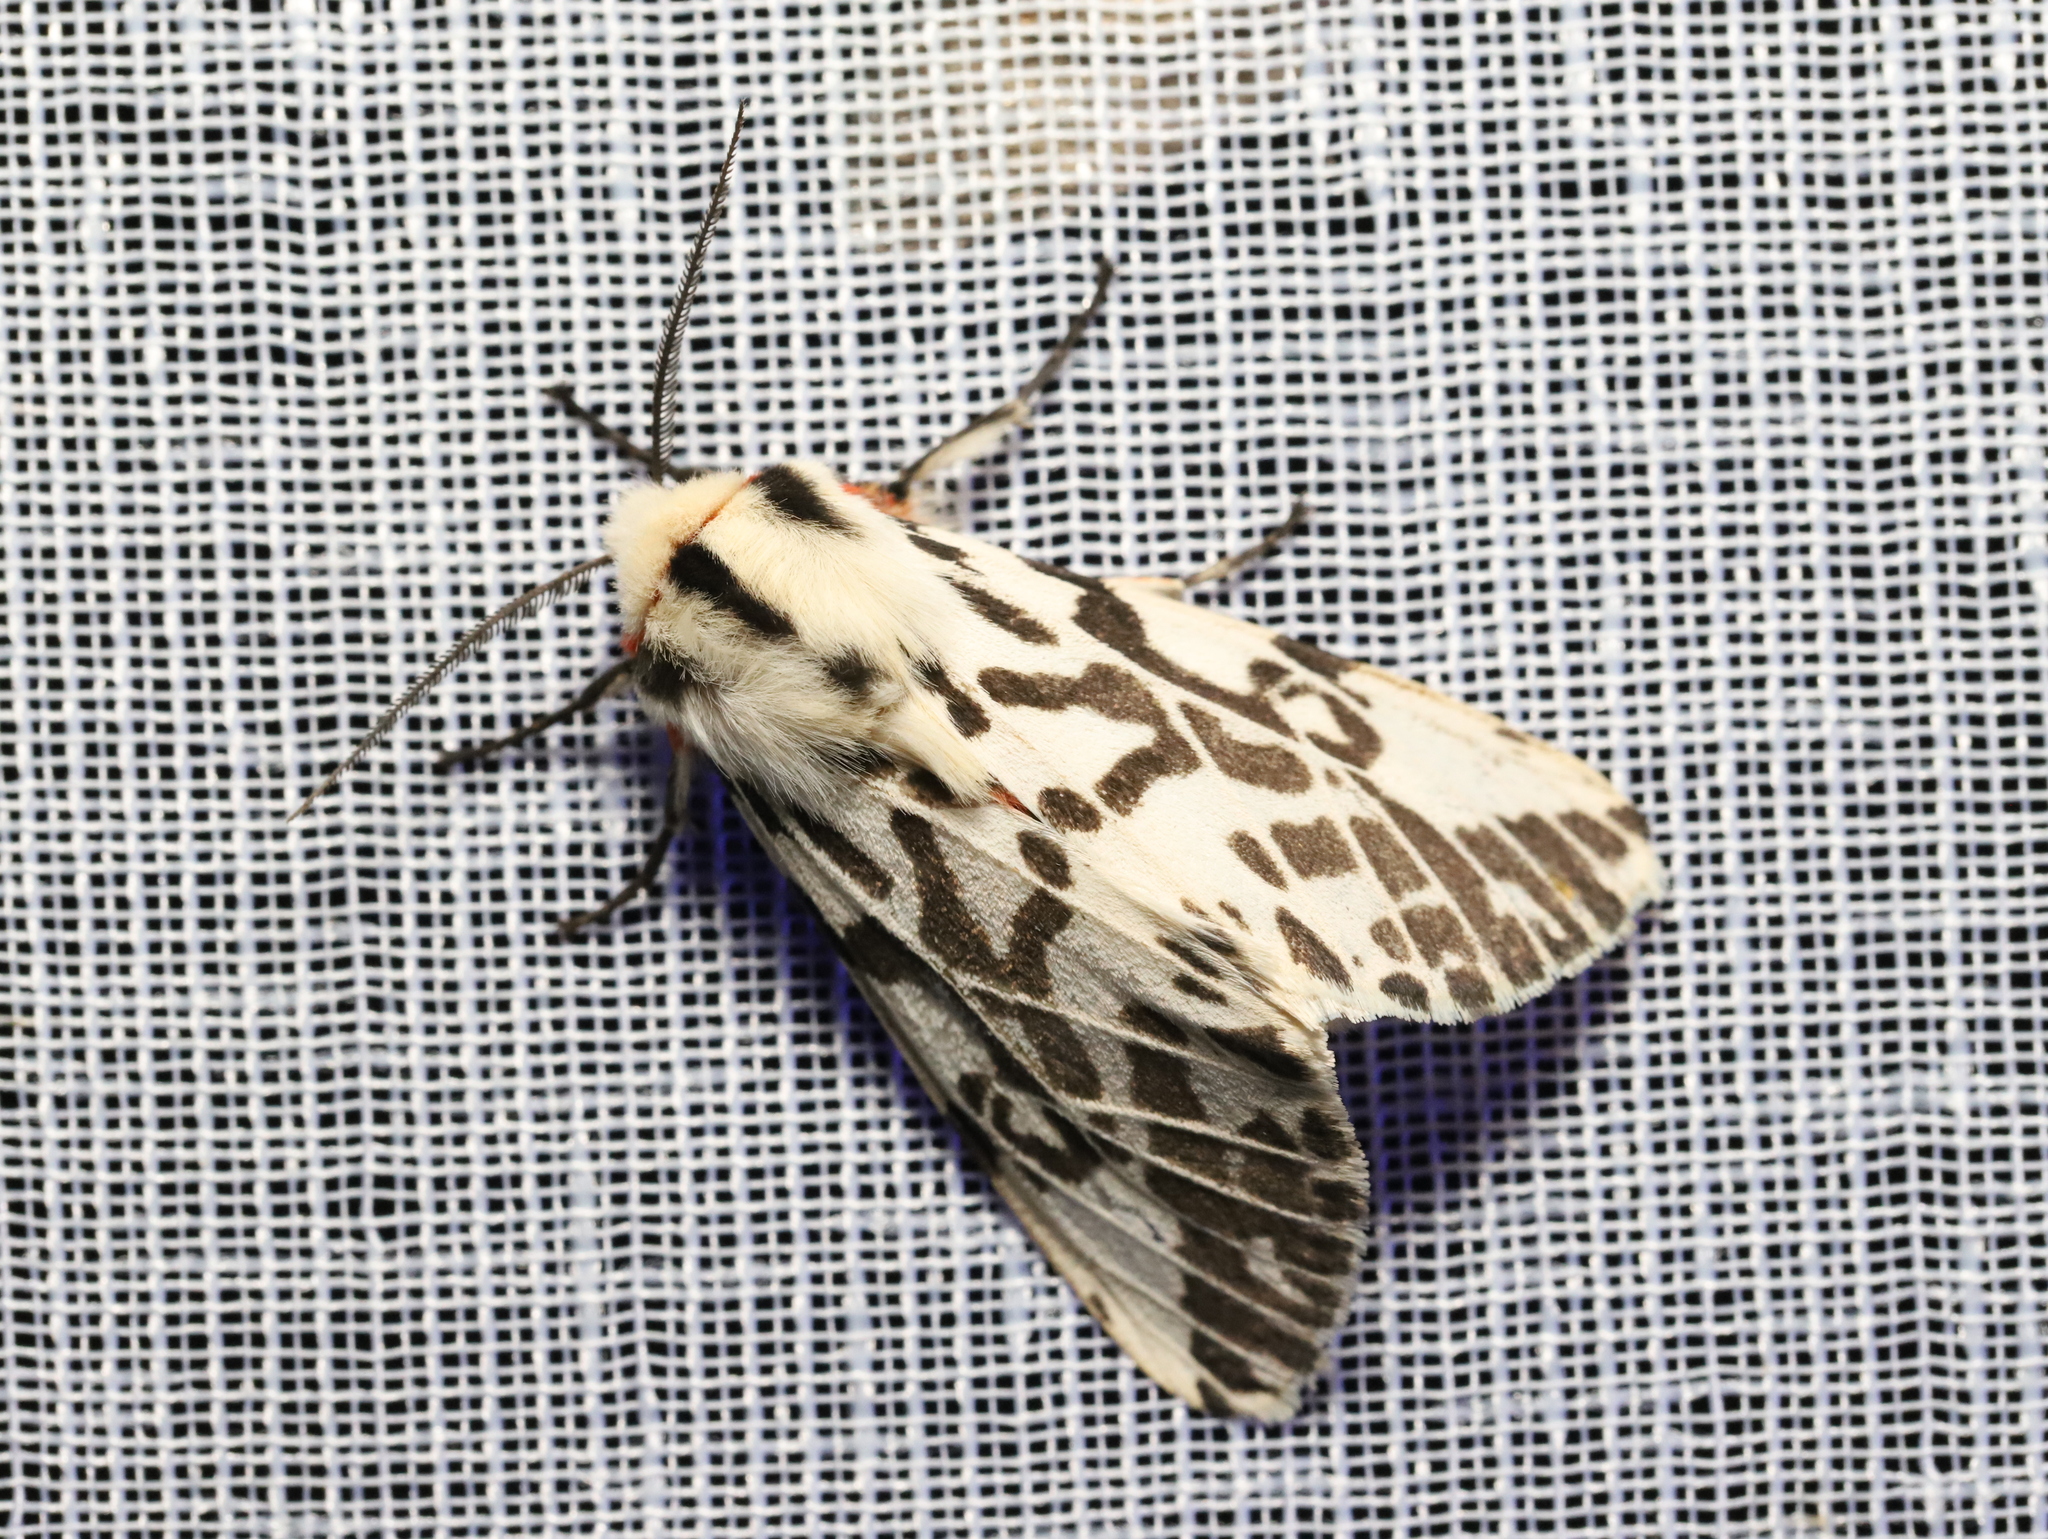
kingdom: Animalia
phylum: Arthropoda
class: Insecta
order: Lepidoptera
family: Erebidae
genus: Ardices
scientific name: Ardices glatignyi
